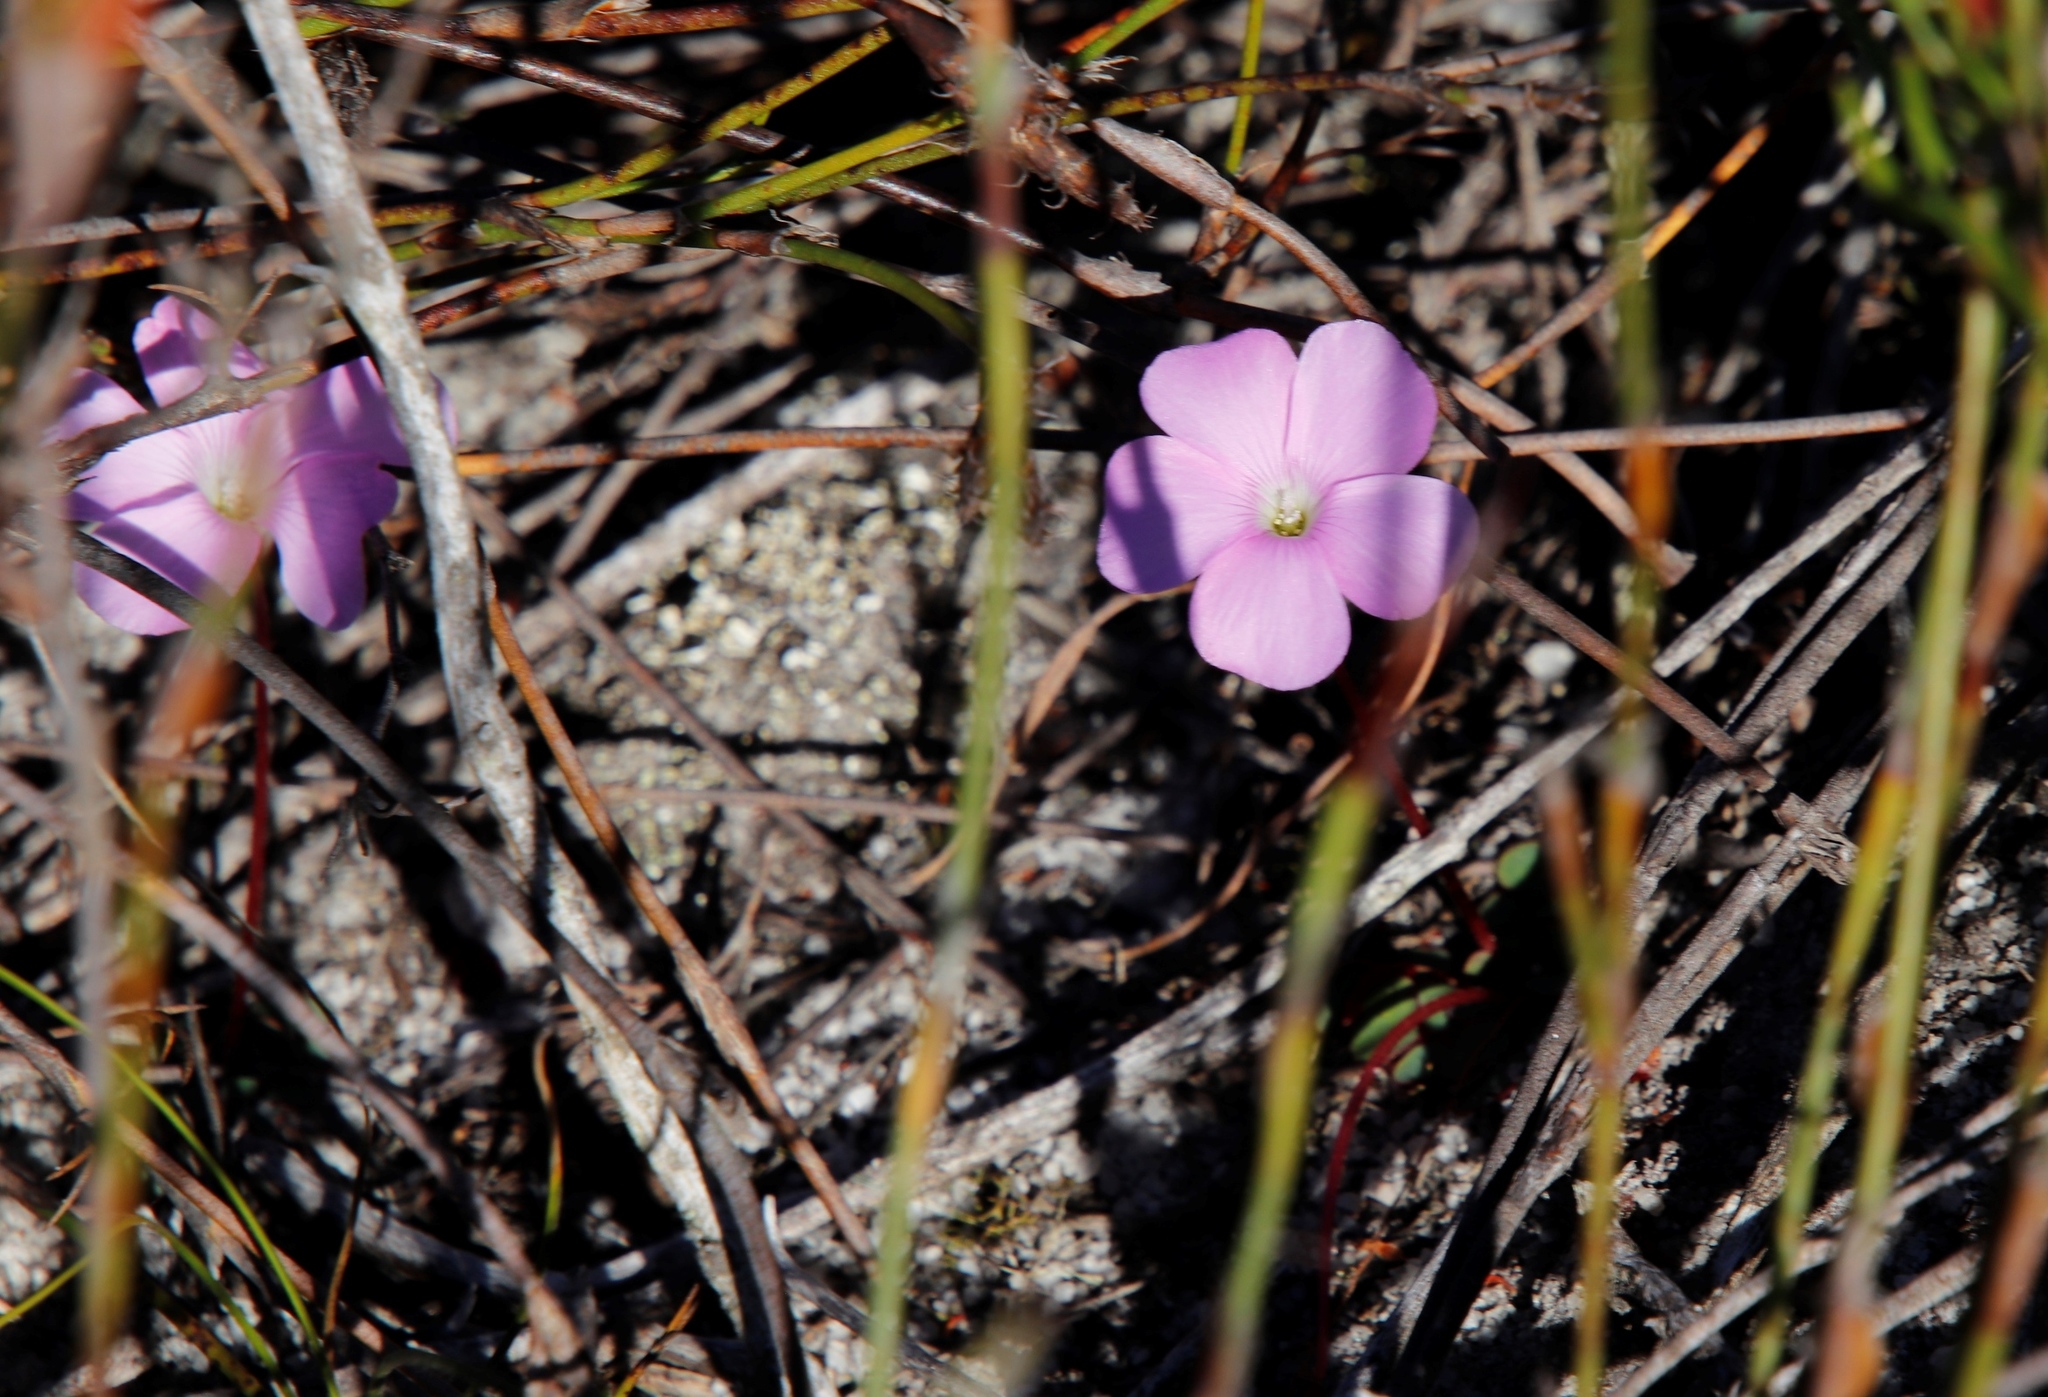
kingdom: Plantae
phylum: Tracheophyta
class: Magnoliopsida
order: Oxalidales
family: Oxalidaceae
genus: Oxalis
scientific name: Oxalis commutata
